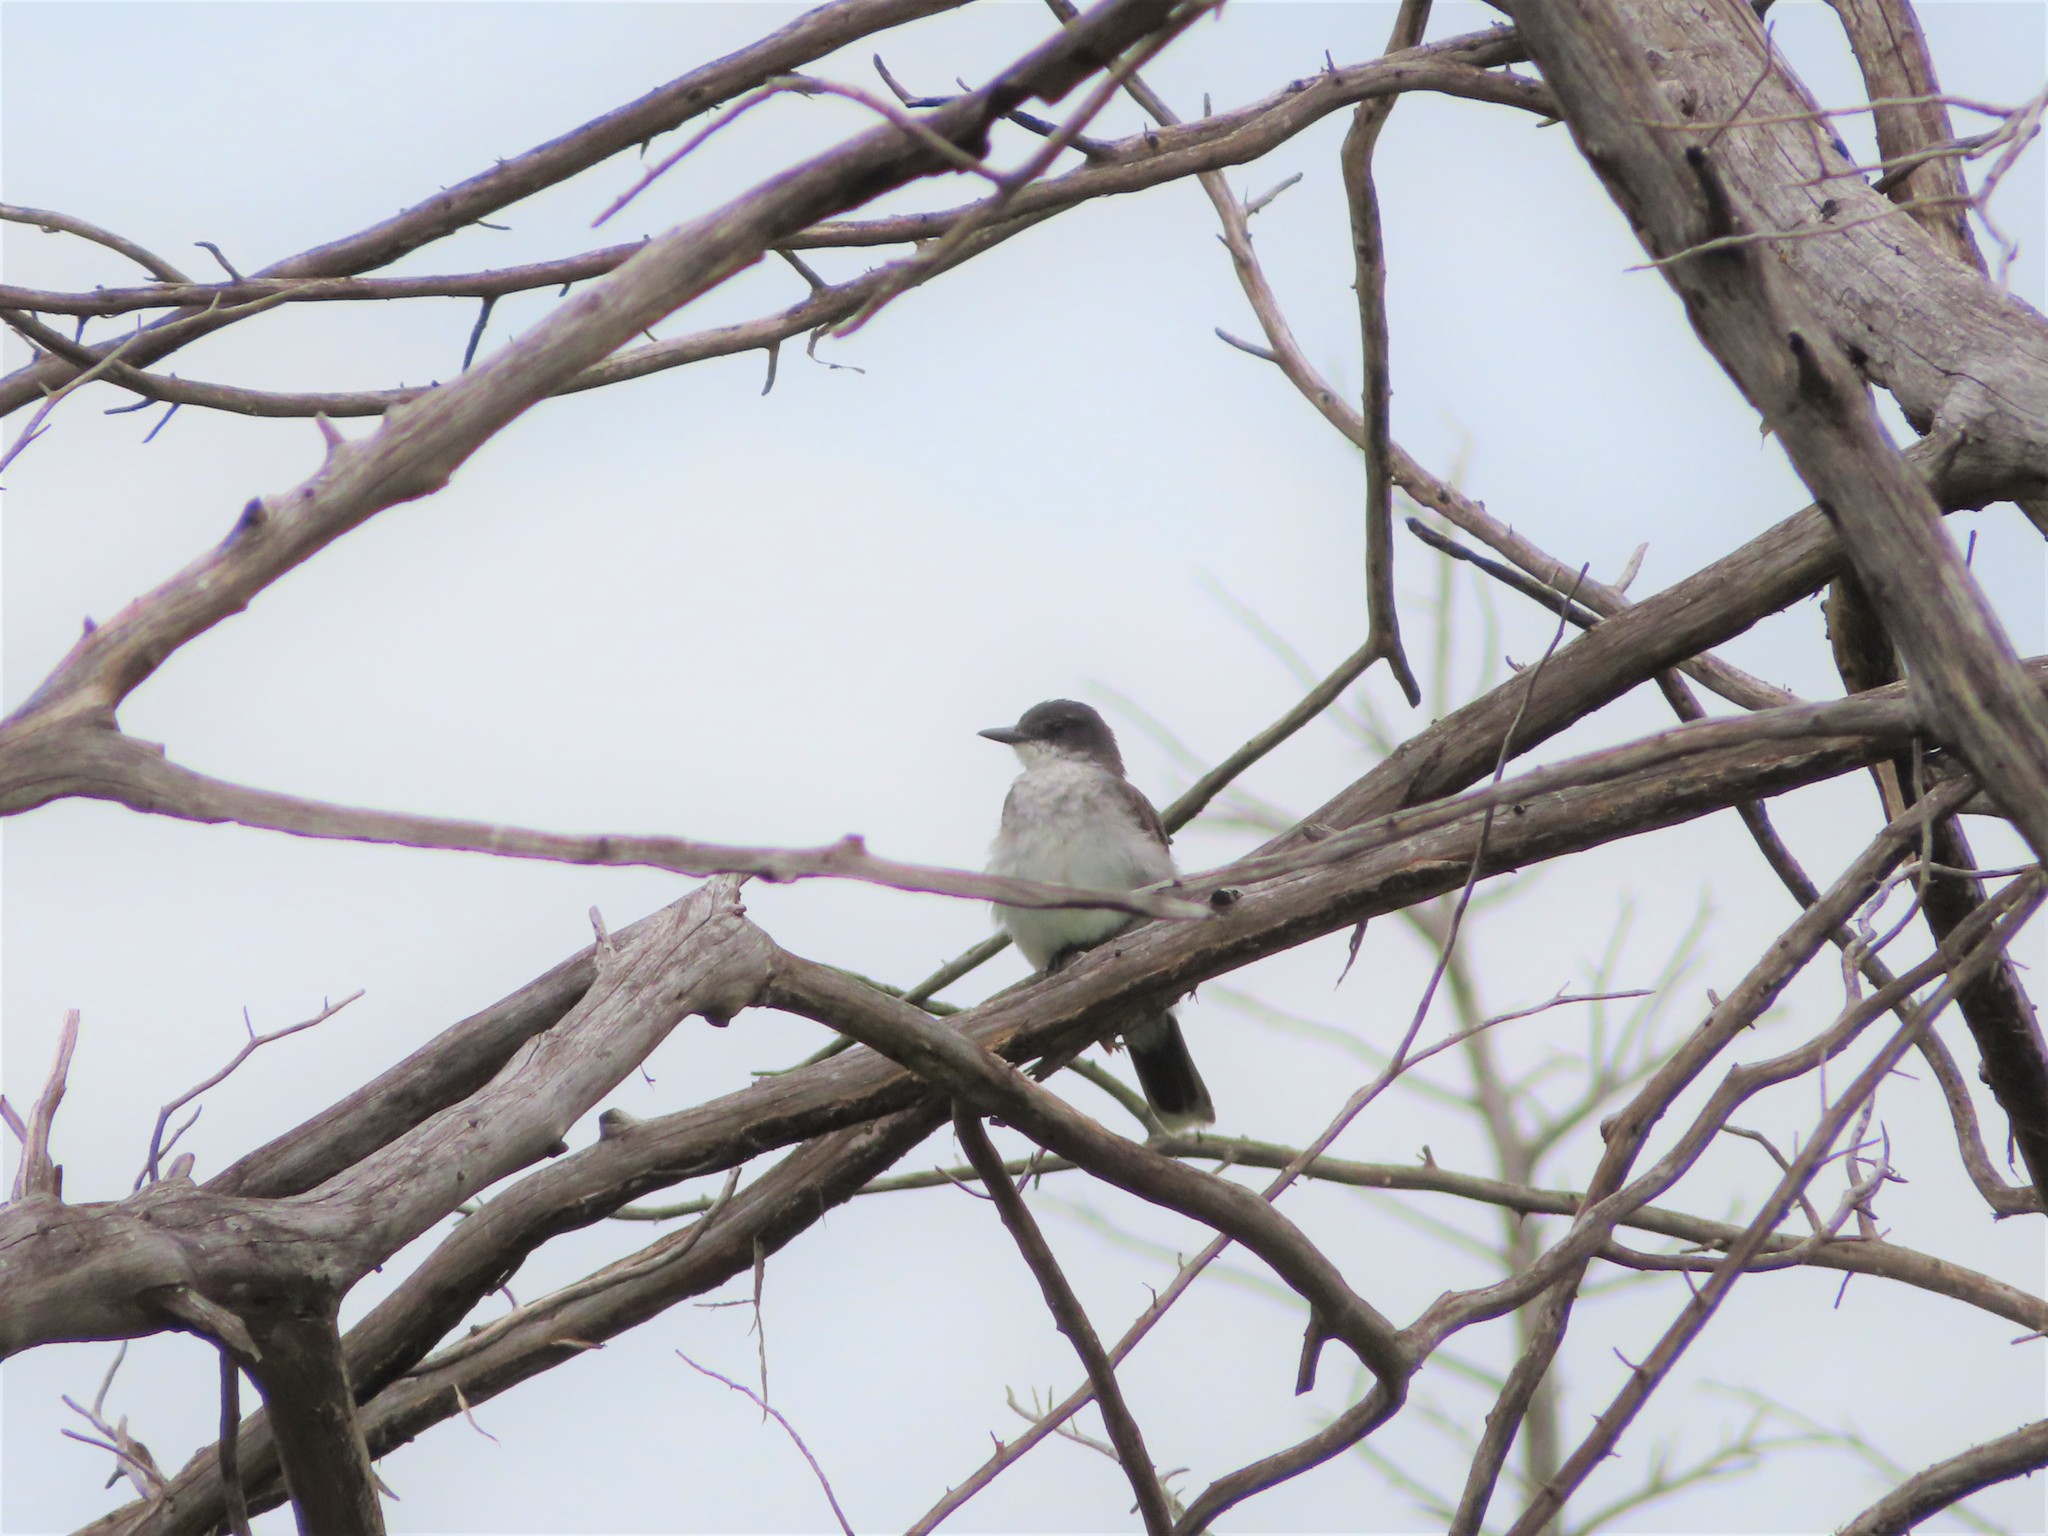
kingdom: Animalia
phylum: Chordata
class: Aves
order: Passeriformes
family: Tyrannidae
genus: Tyrannus
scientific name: Tyrannus tyrannus
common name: Eastern kingbird
